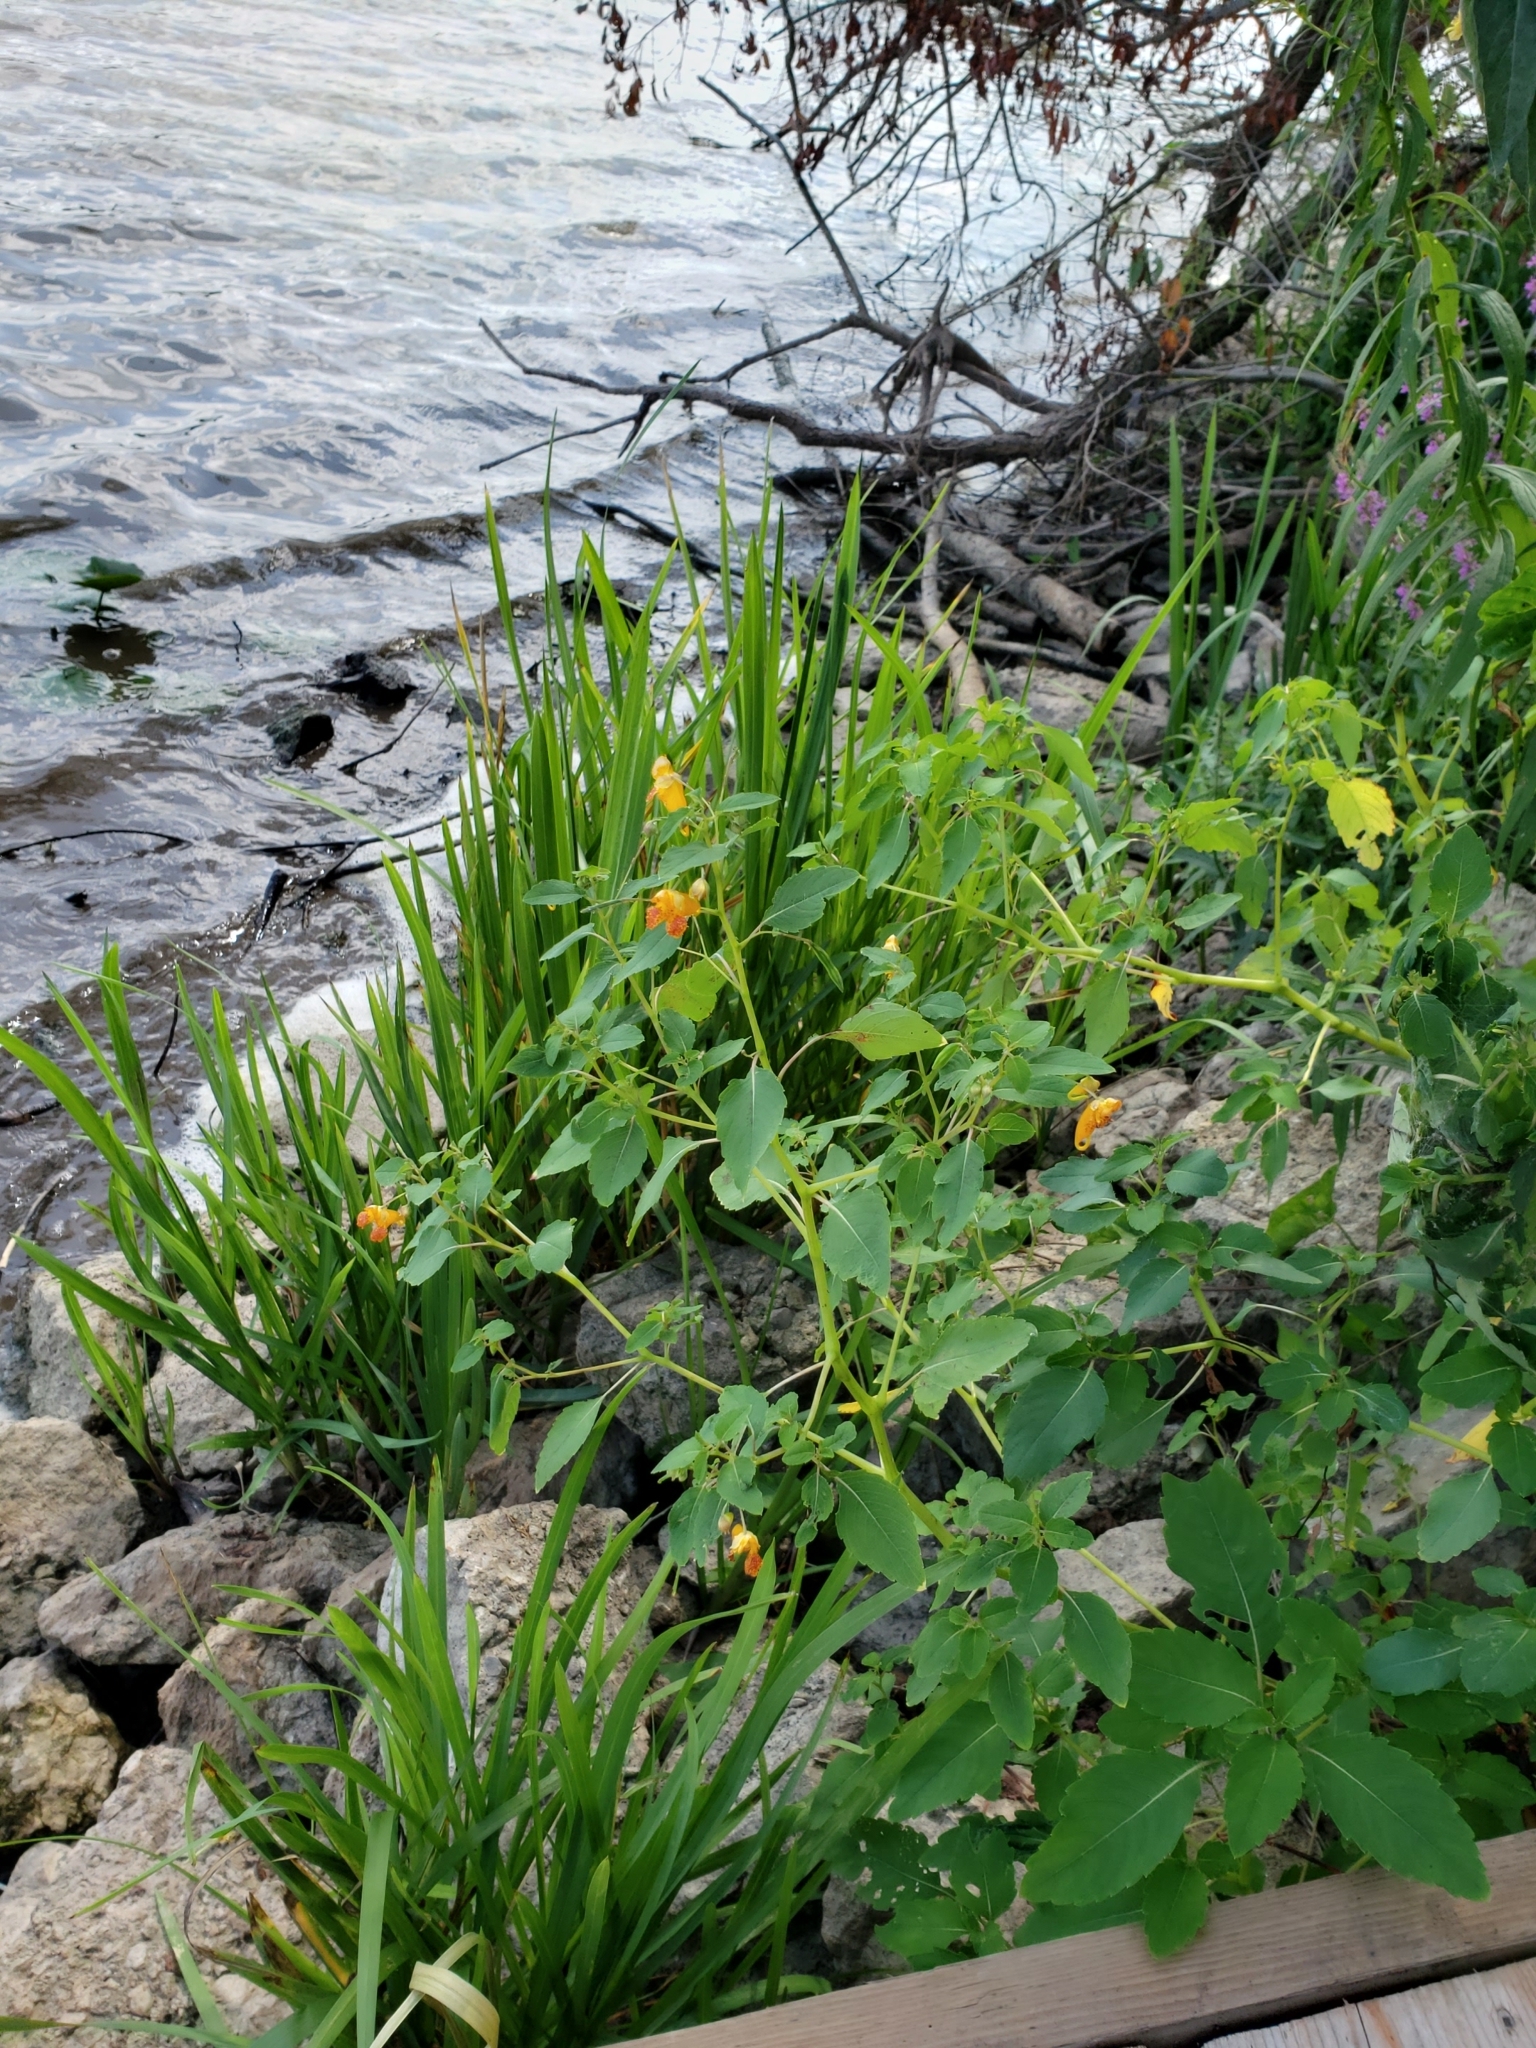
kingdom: Plantae
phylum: Tracheophyta
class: Magnoliopsida
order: Ericales
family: Balsaminaceae
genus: Impatiens
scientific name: Impatiens capensis
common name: Orange balsam
